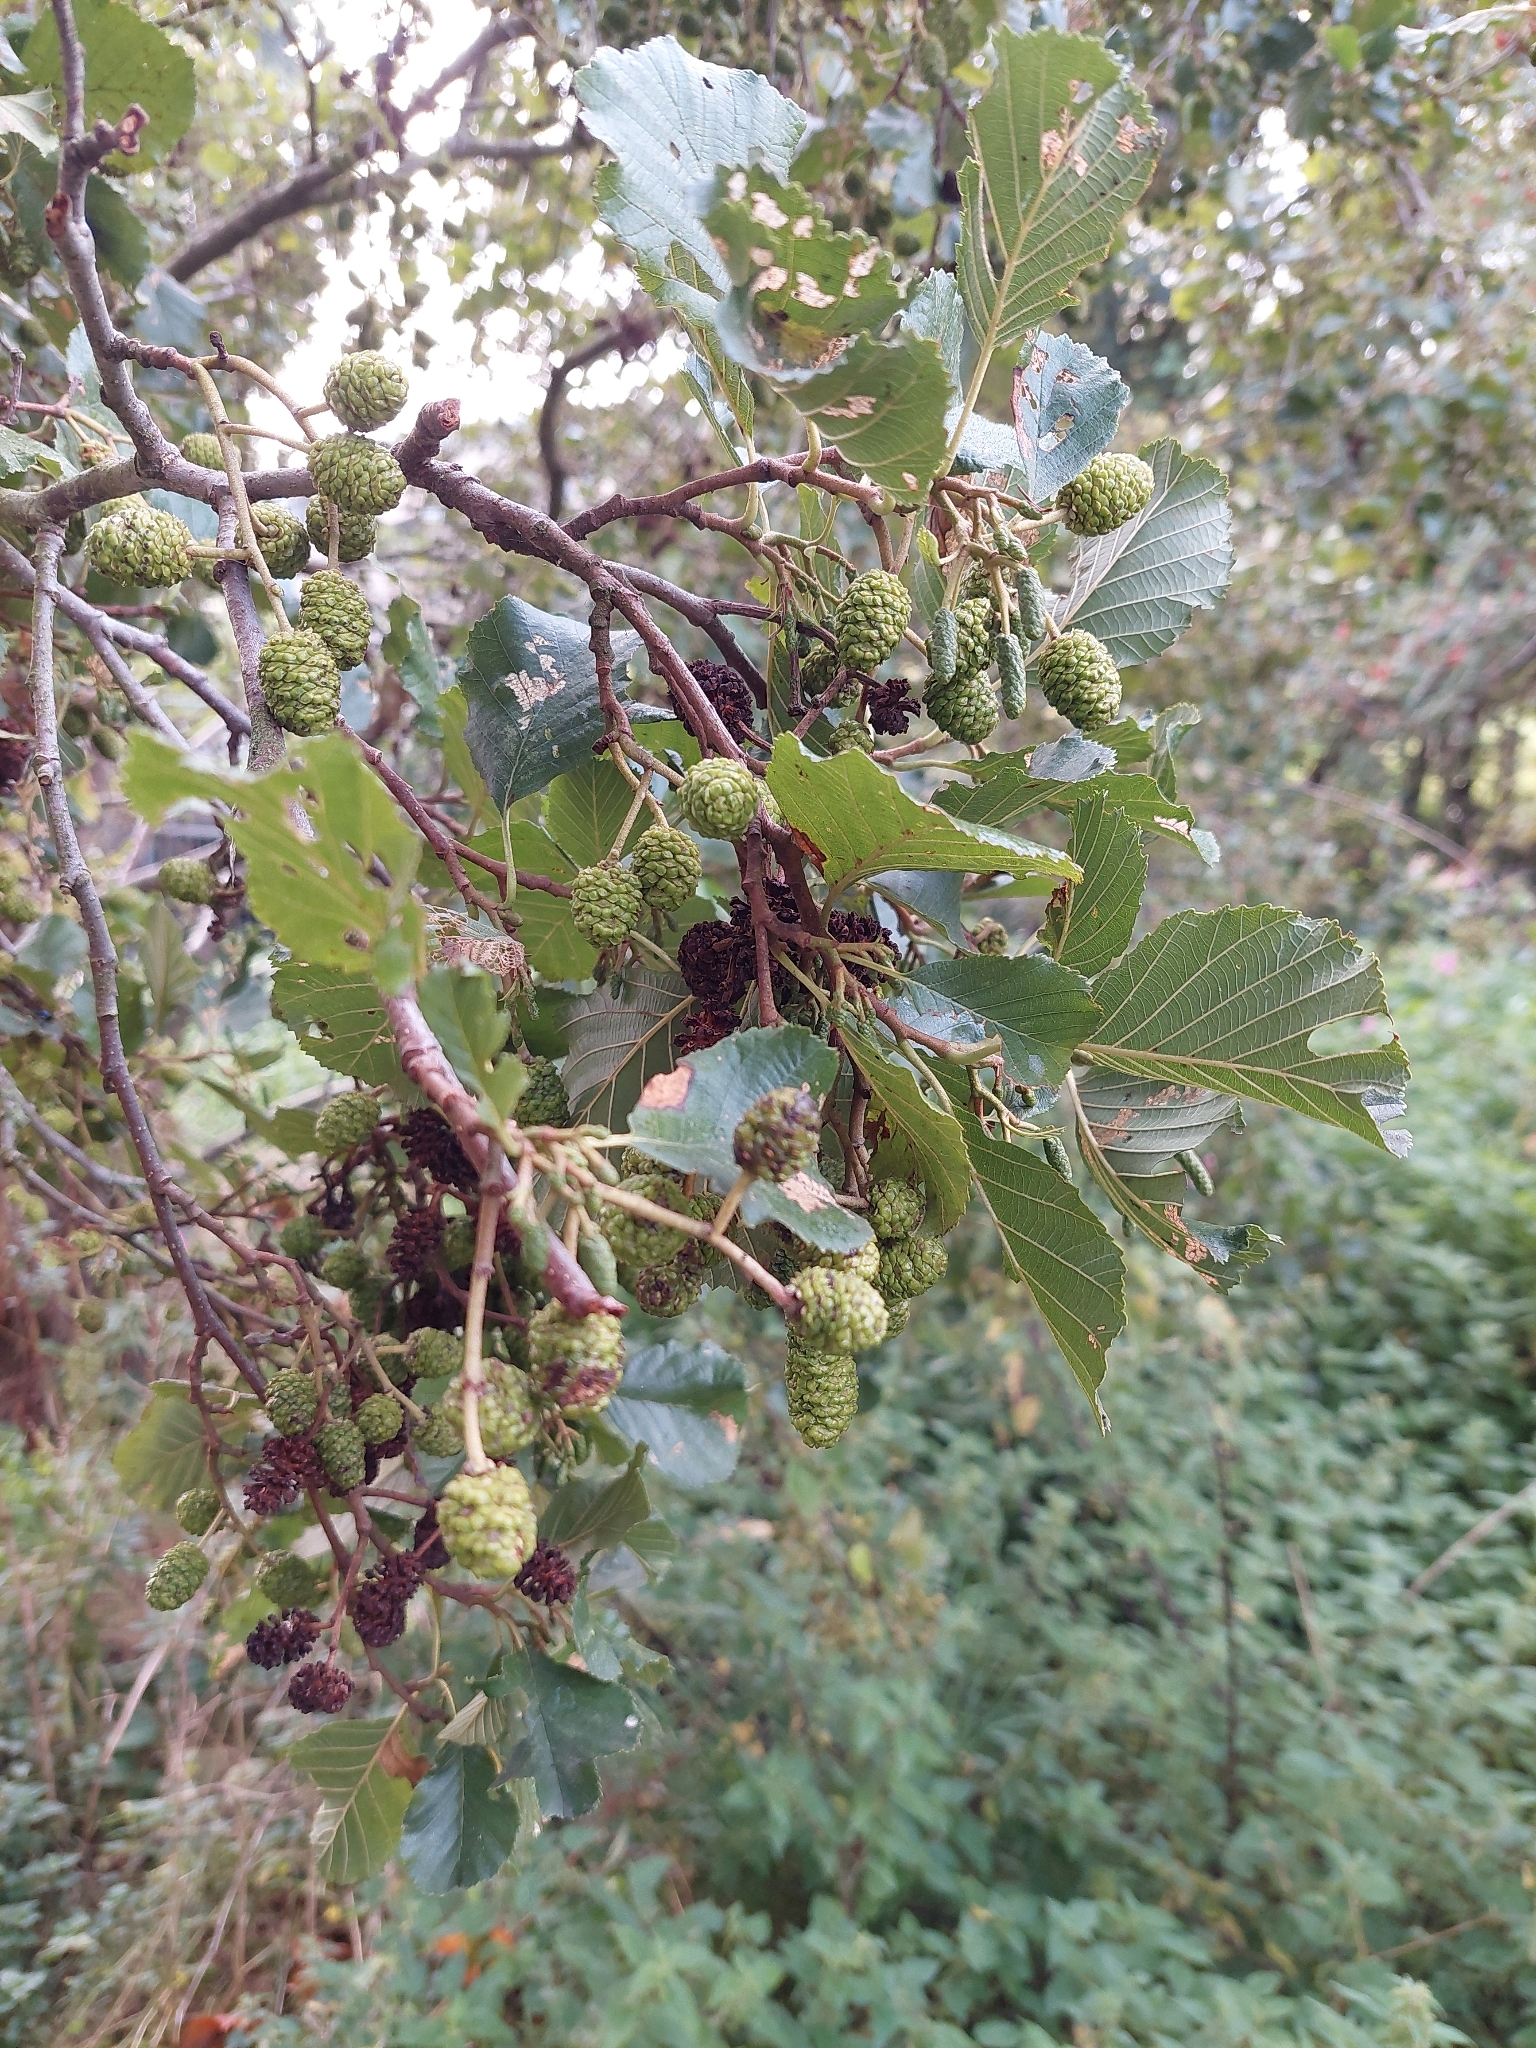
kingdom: Plantae
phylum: Tracheophyta
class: Magnoliopsida
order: Fagales
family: Betulaceae
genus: Alnus
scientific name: Alnus glutinosa
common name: Black alder
